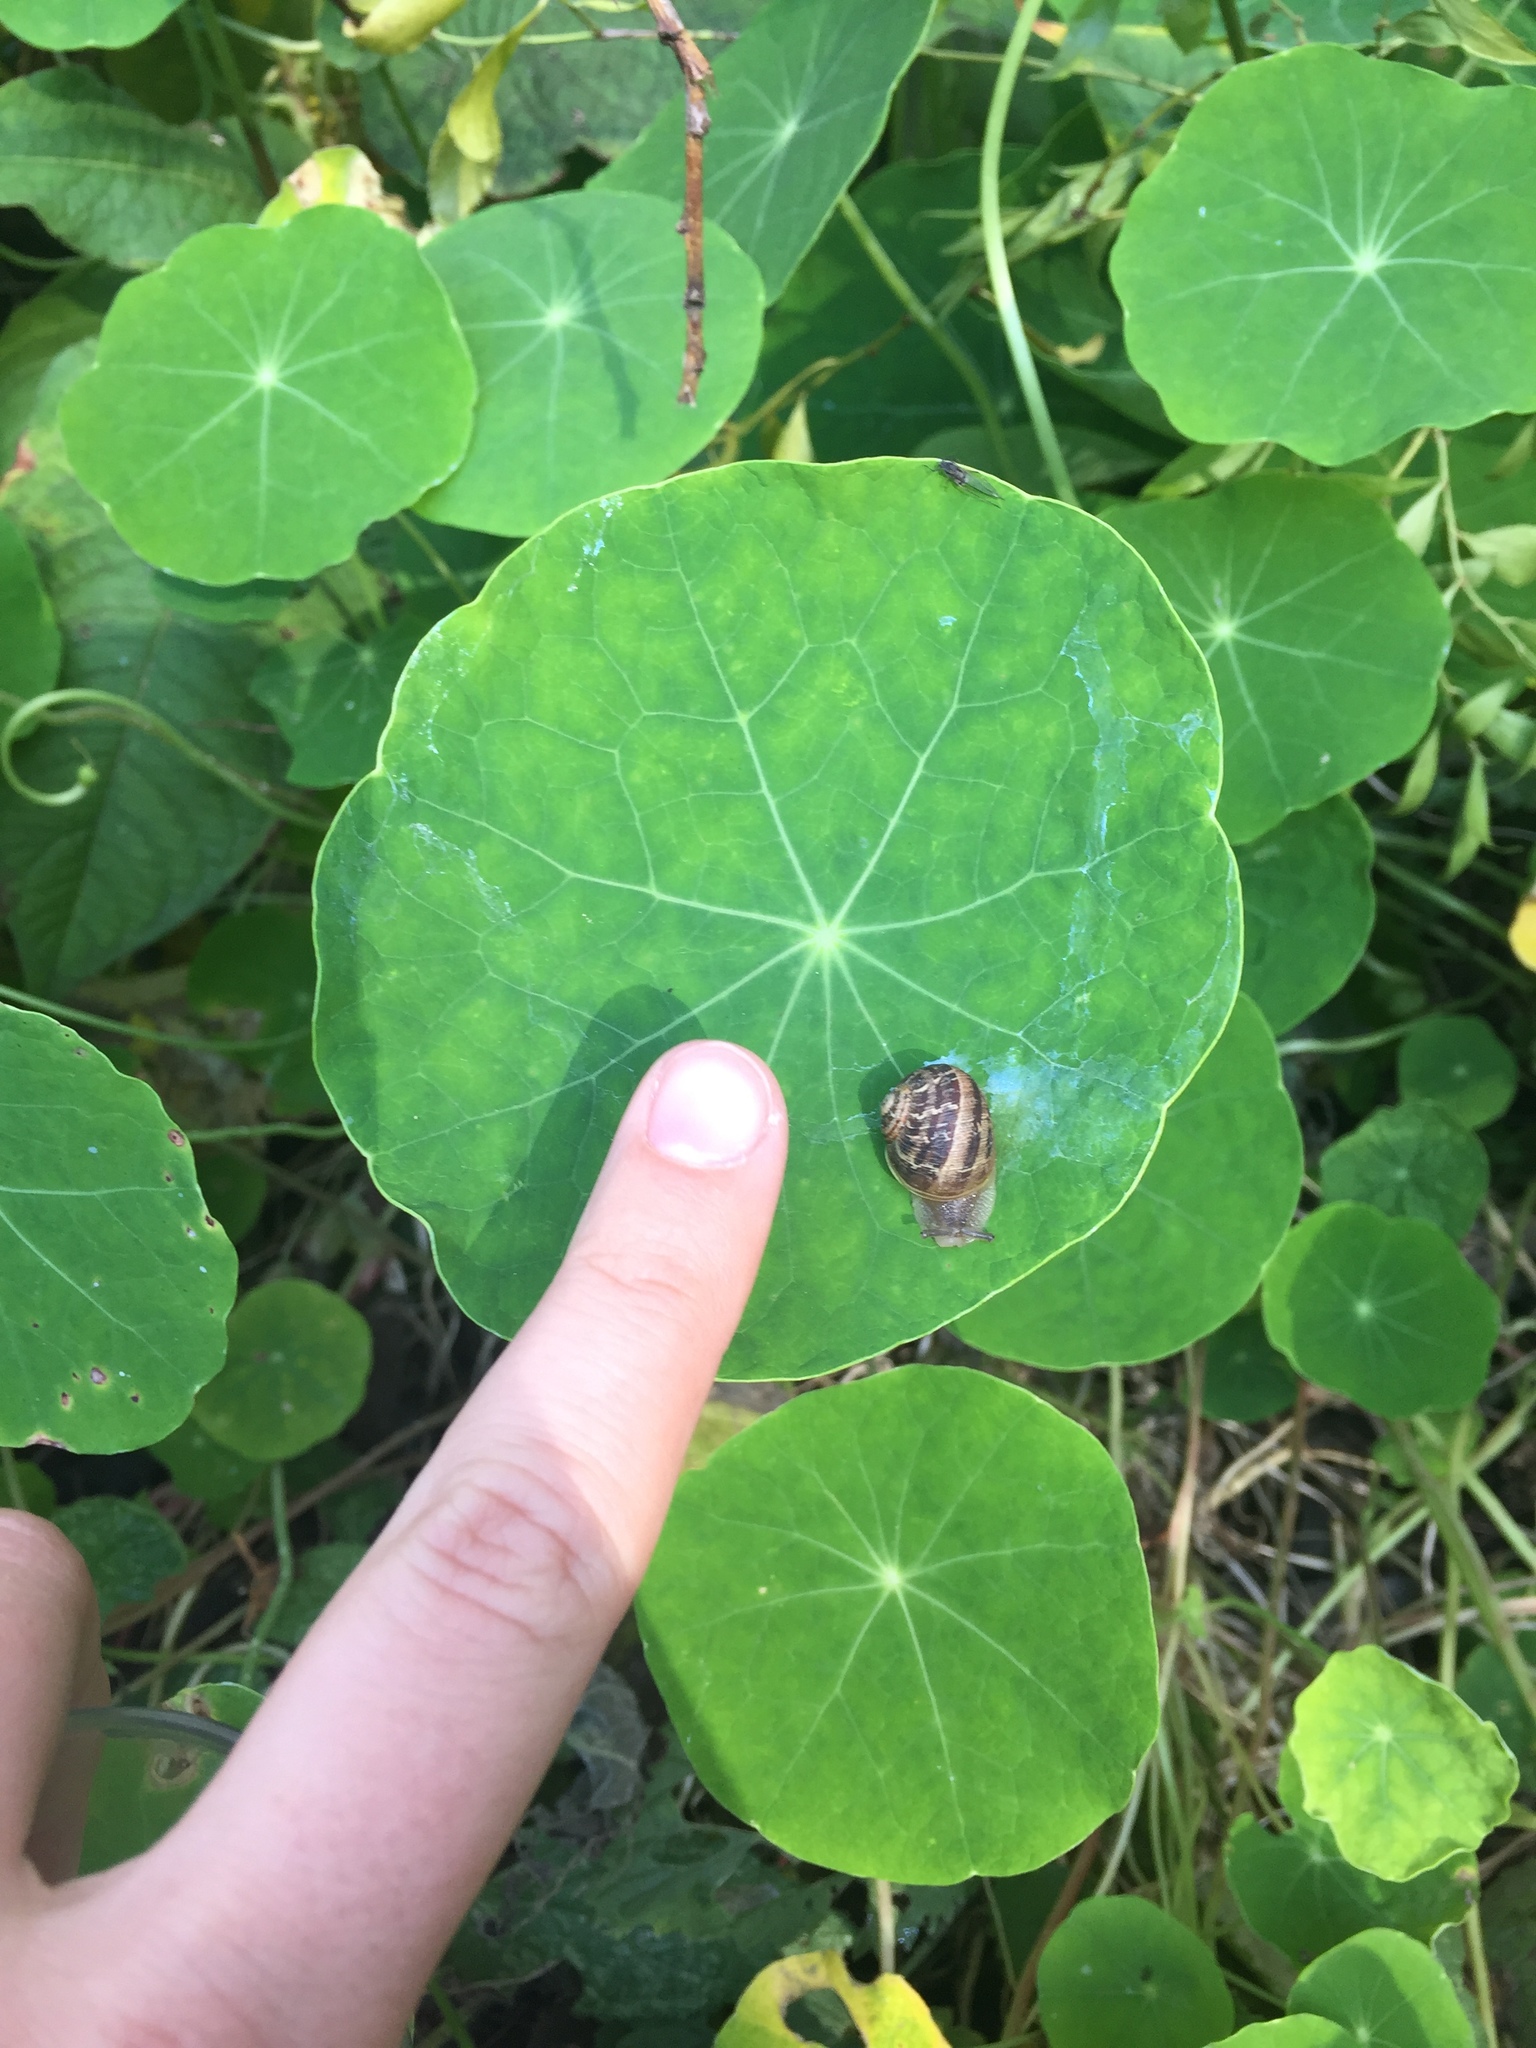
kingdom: Animalia
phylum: Mollusca
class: Gastropoda
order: Stylommatophora
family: Helicidae
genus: Cornu
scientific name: Cornu aspersum
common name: Brown garden snail
